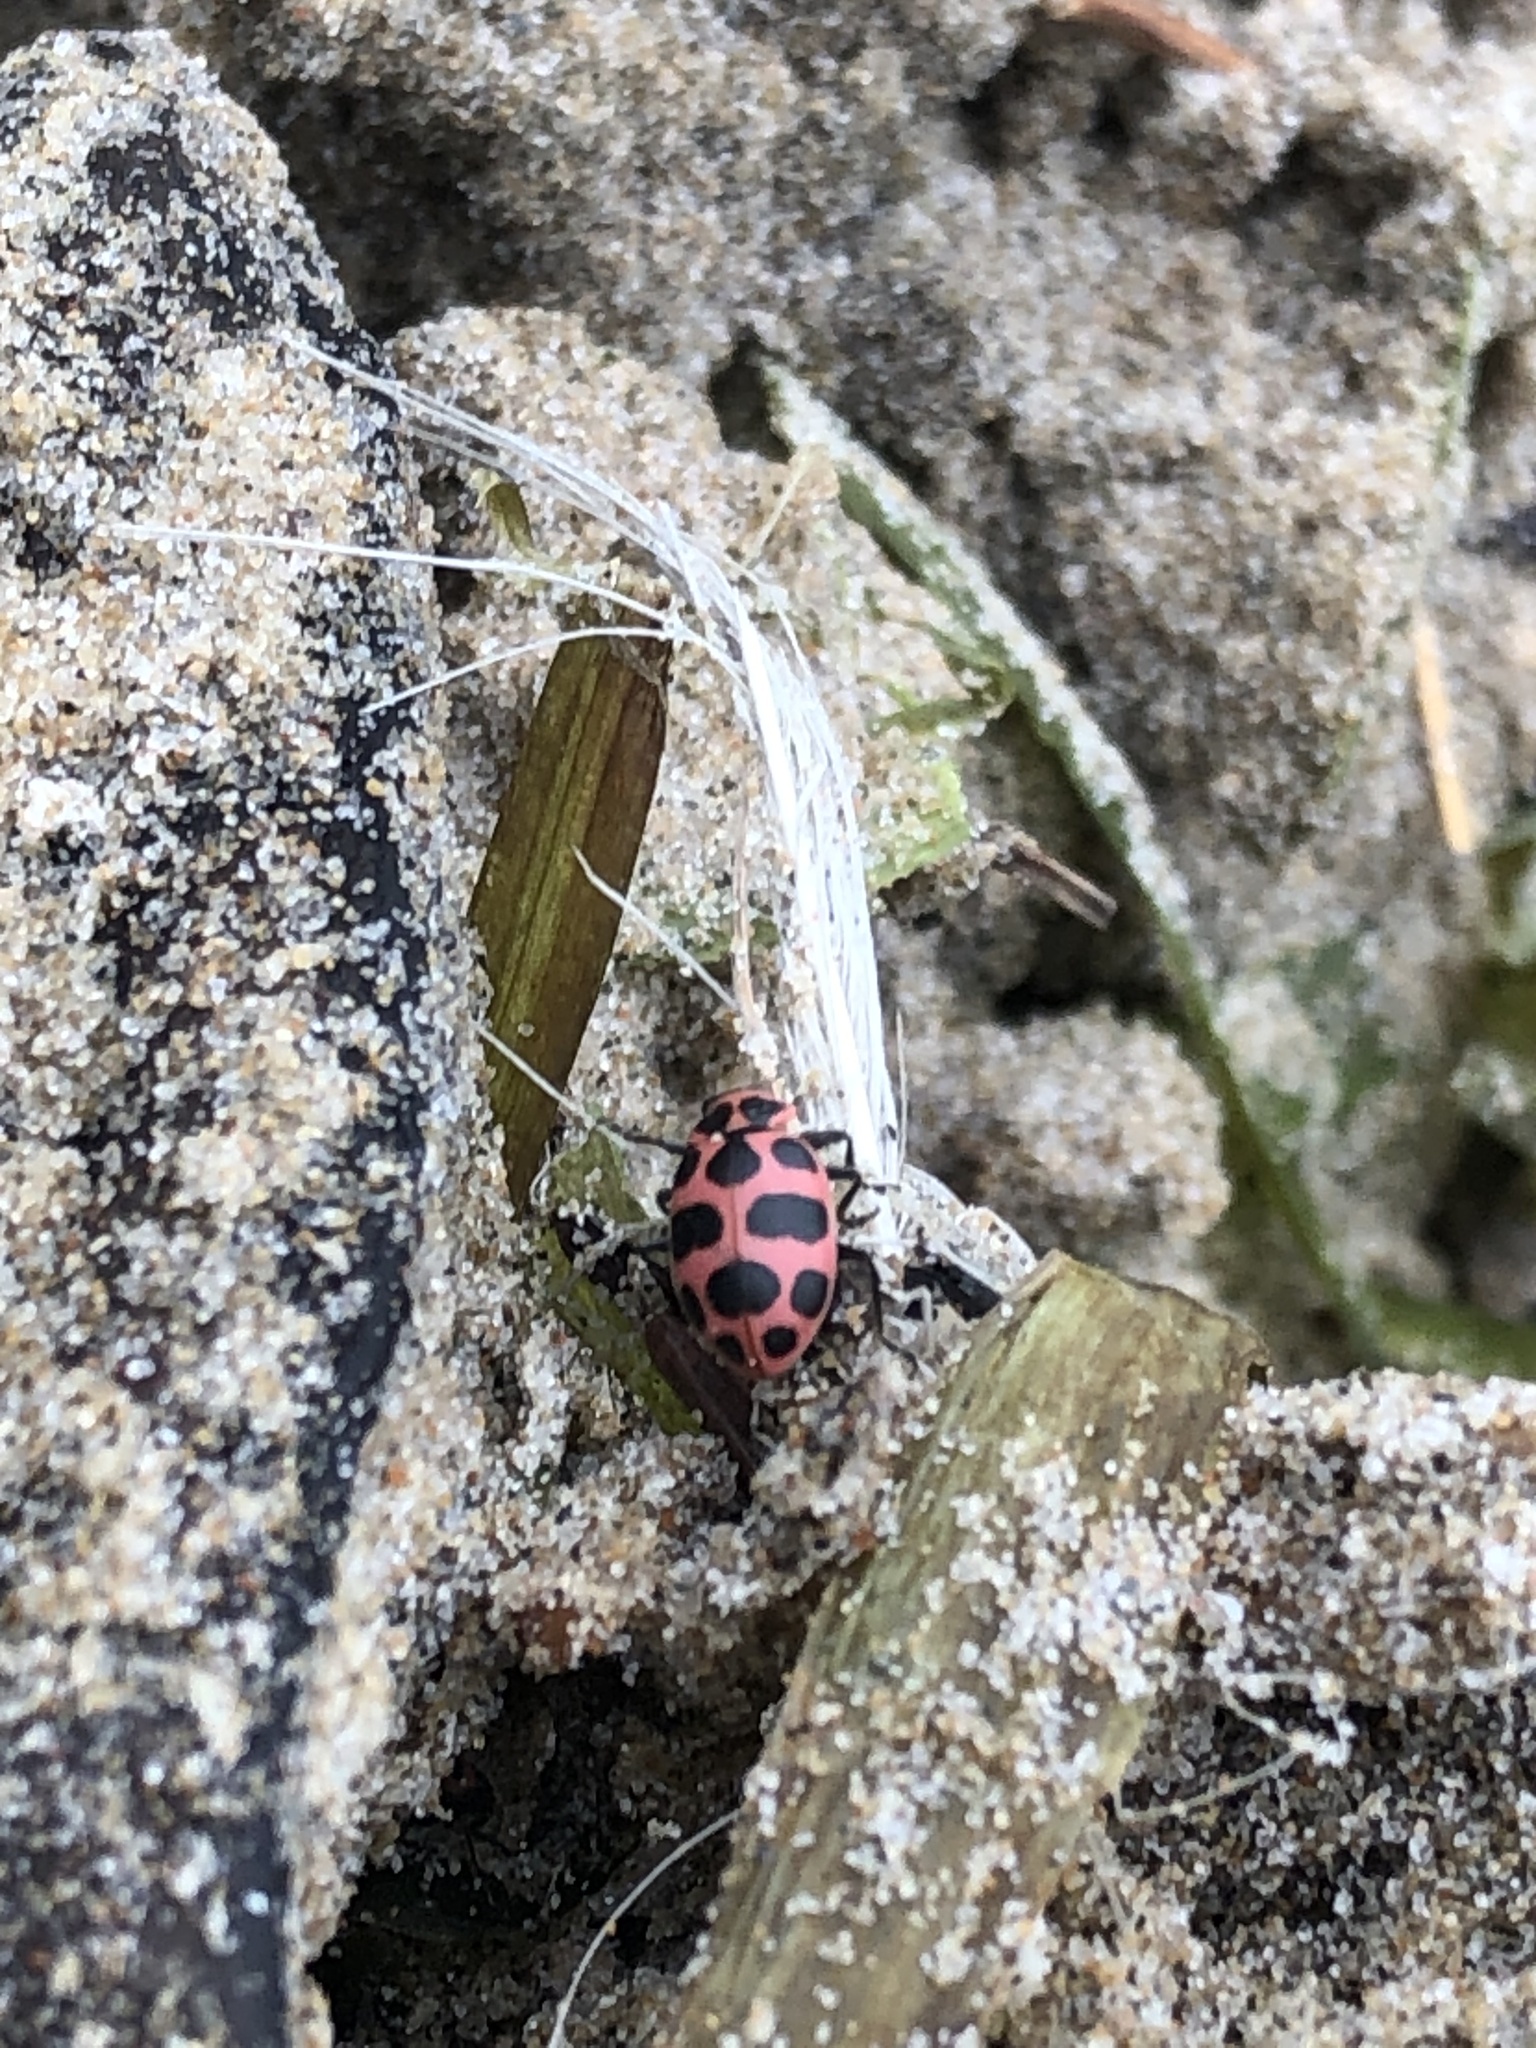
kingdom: Animalia
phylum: Arthropoda
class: Insecta
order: Coleoptera
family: Coccinellidae
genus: Coleomegilla
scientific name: Coleomegilla maculata
